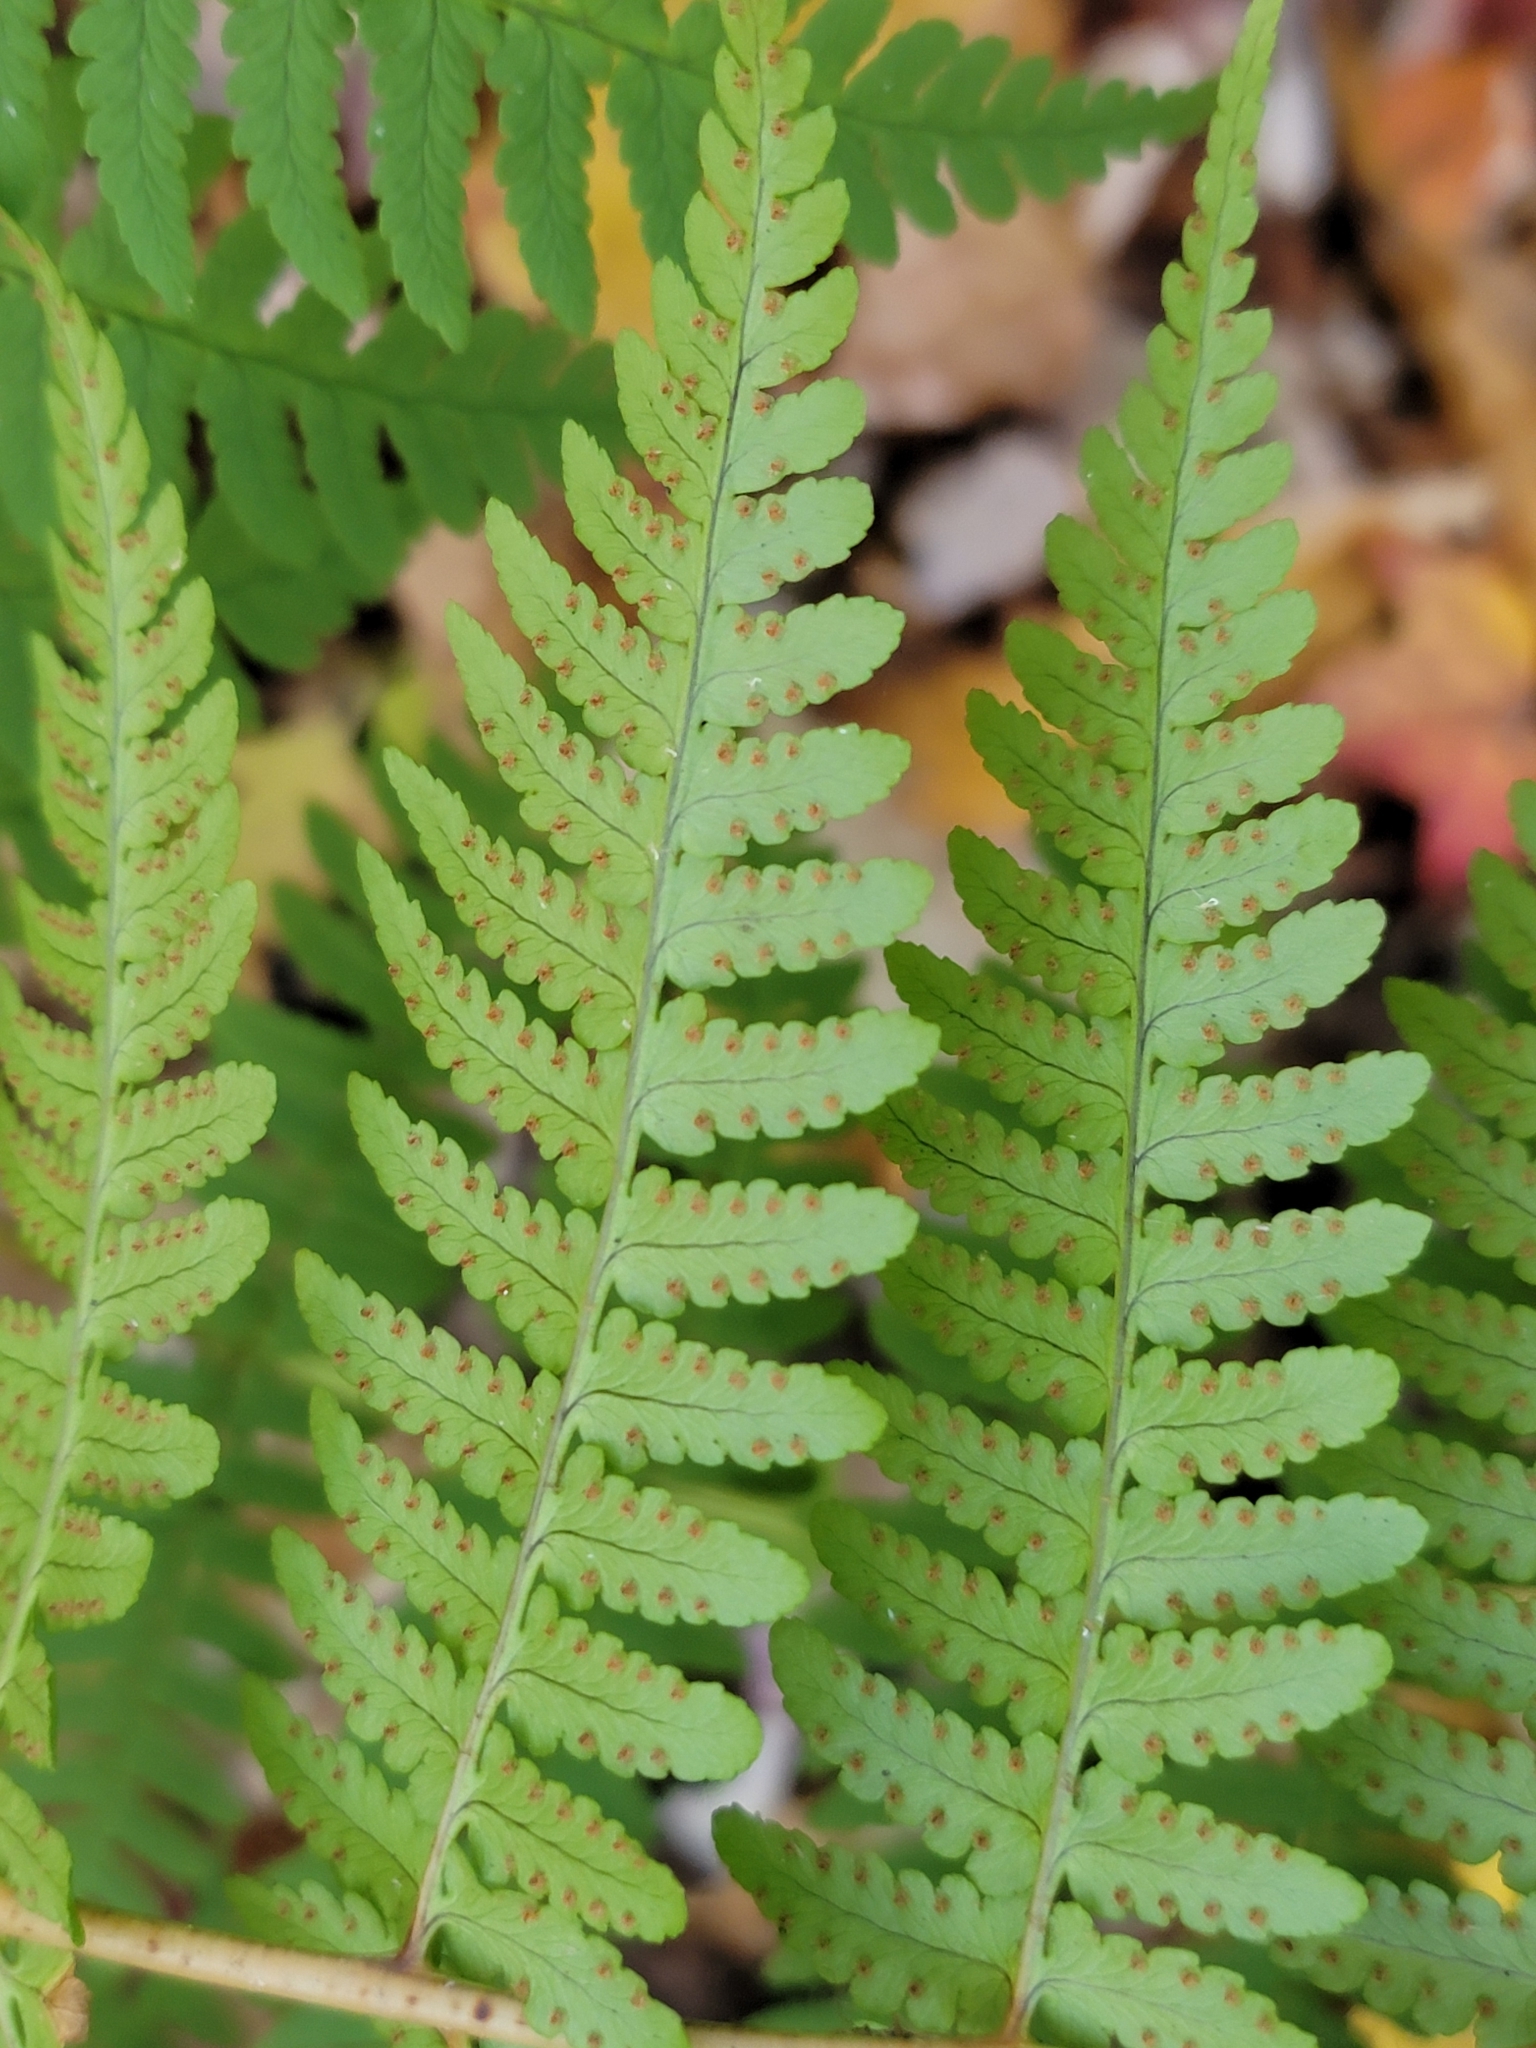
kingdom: Plantae
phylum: Tracheophyta
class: Polypodiopsida
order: Polypodiales
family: Dryopteridaceae
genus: Dryopteris
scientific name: Dryopteris marginalis
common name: Marginal wood fern
